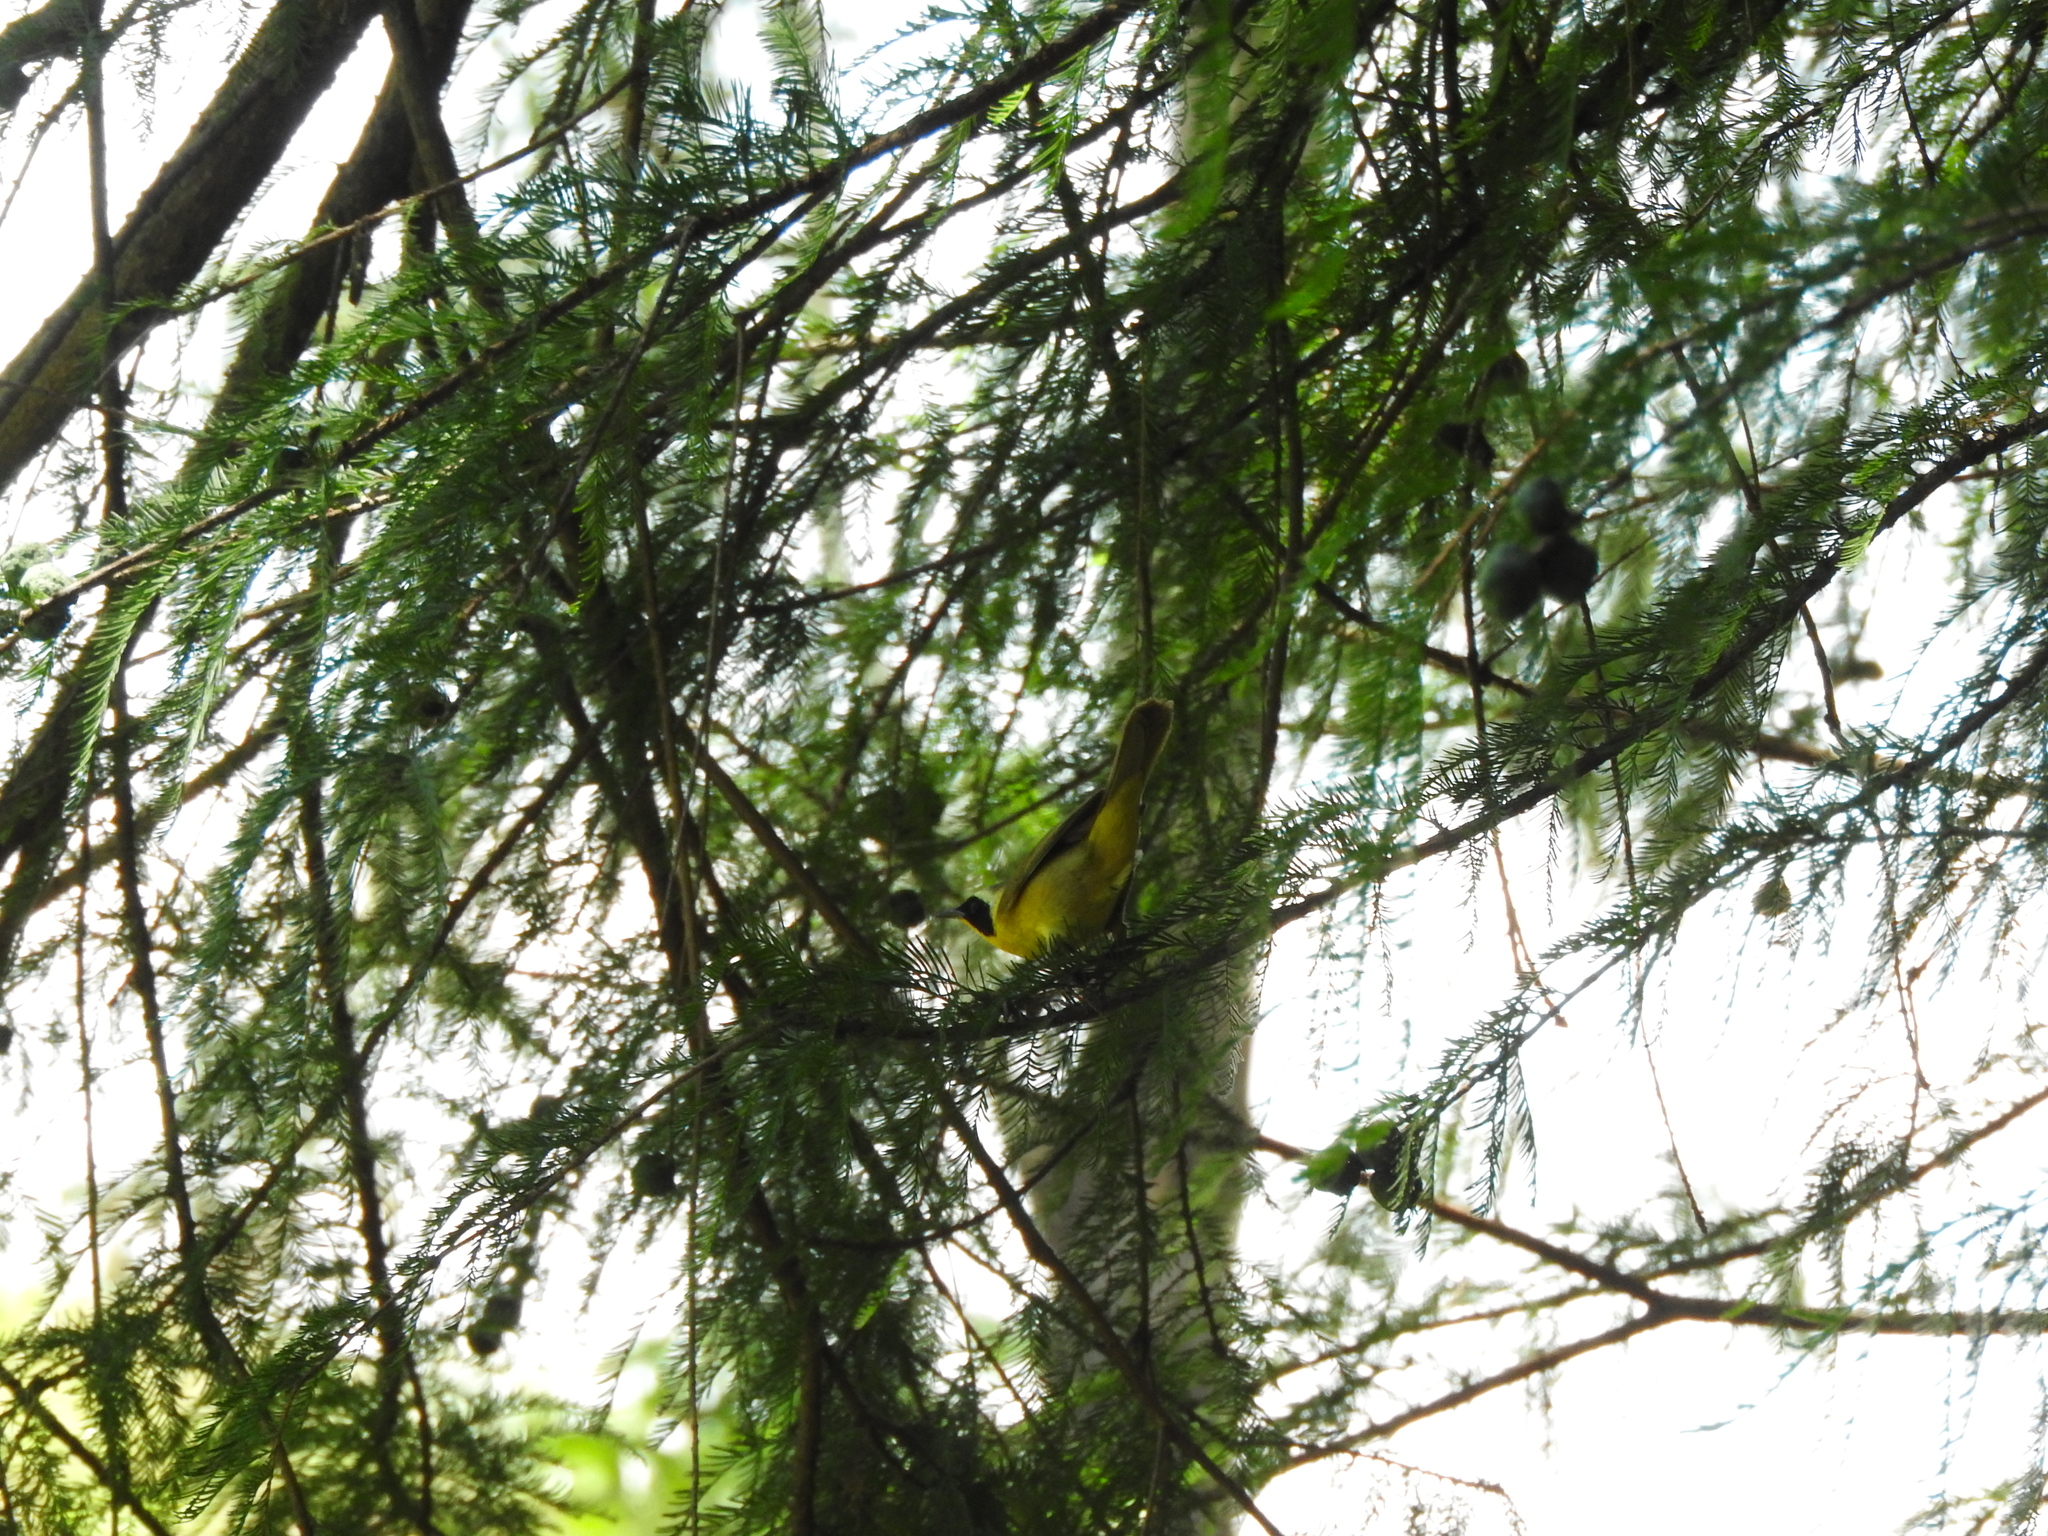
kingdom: Animalia
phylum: Chordata
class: Aves
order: Passeriformes
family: Parulidae
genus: Geothlypis
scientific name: Geothlypis trichas
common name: Common yellowthroat
